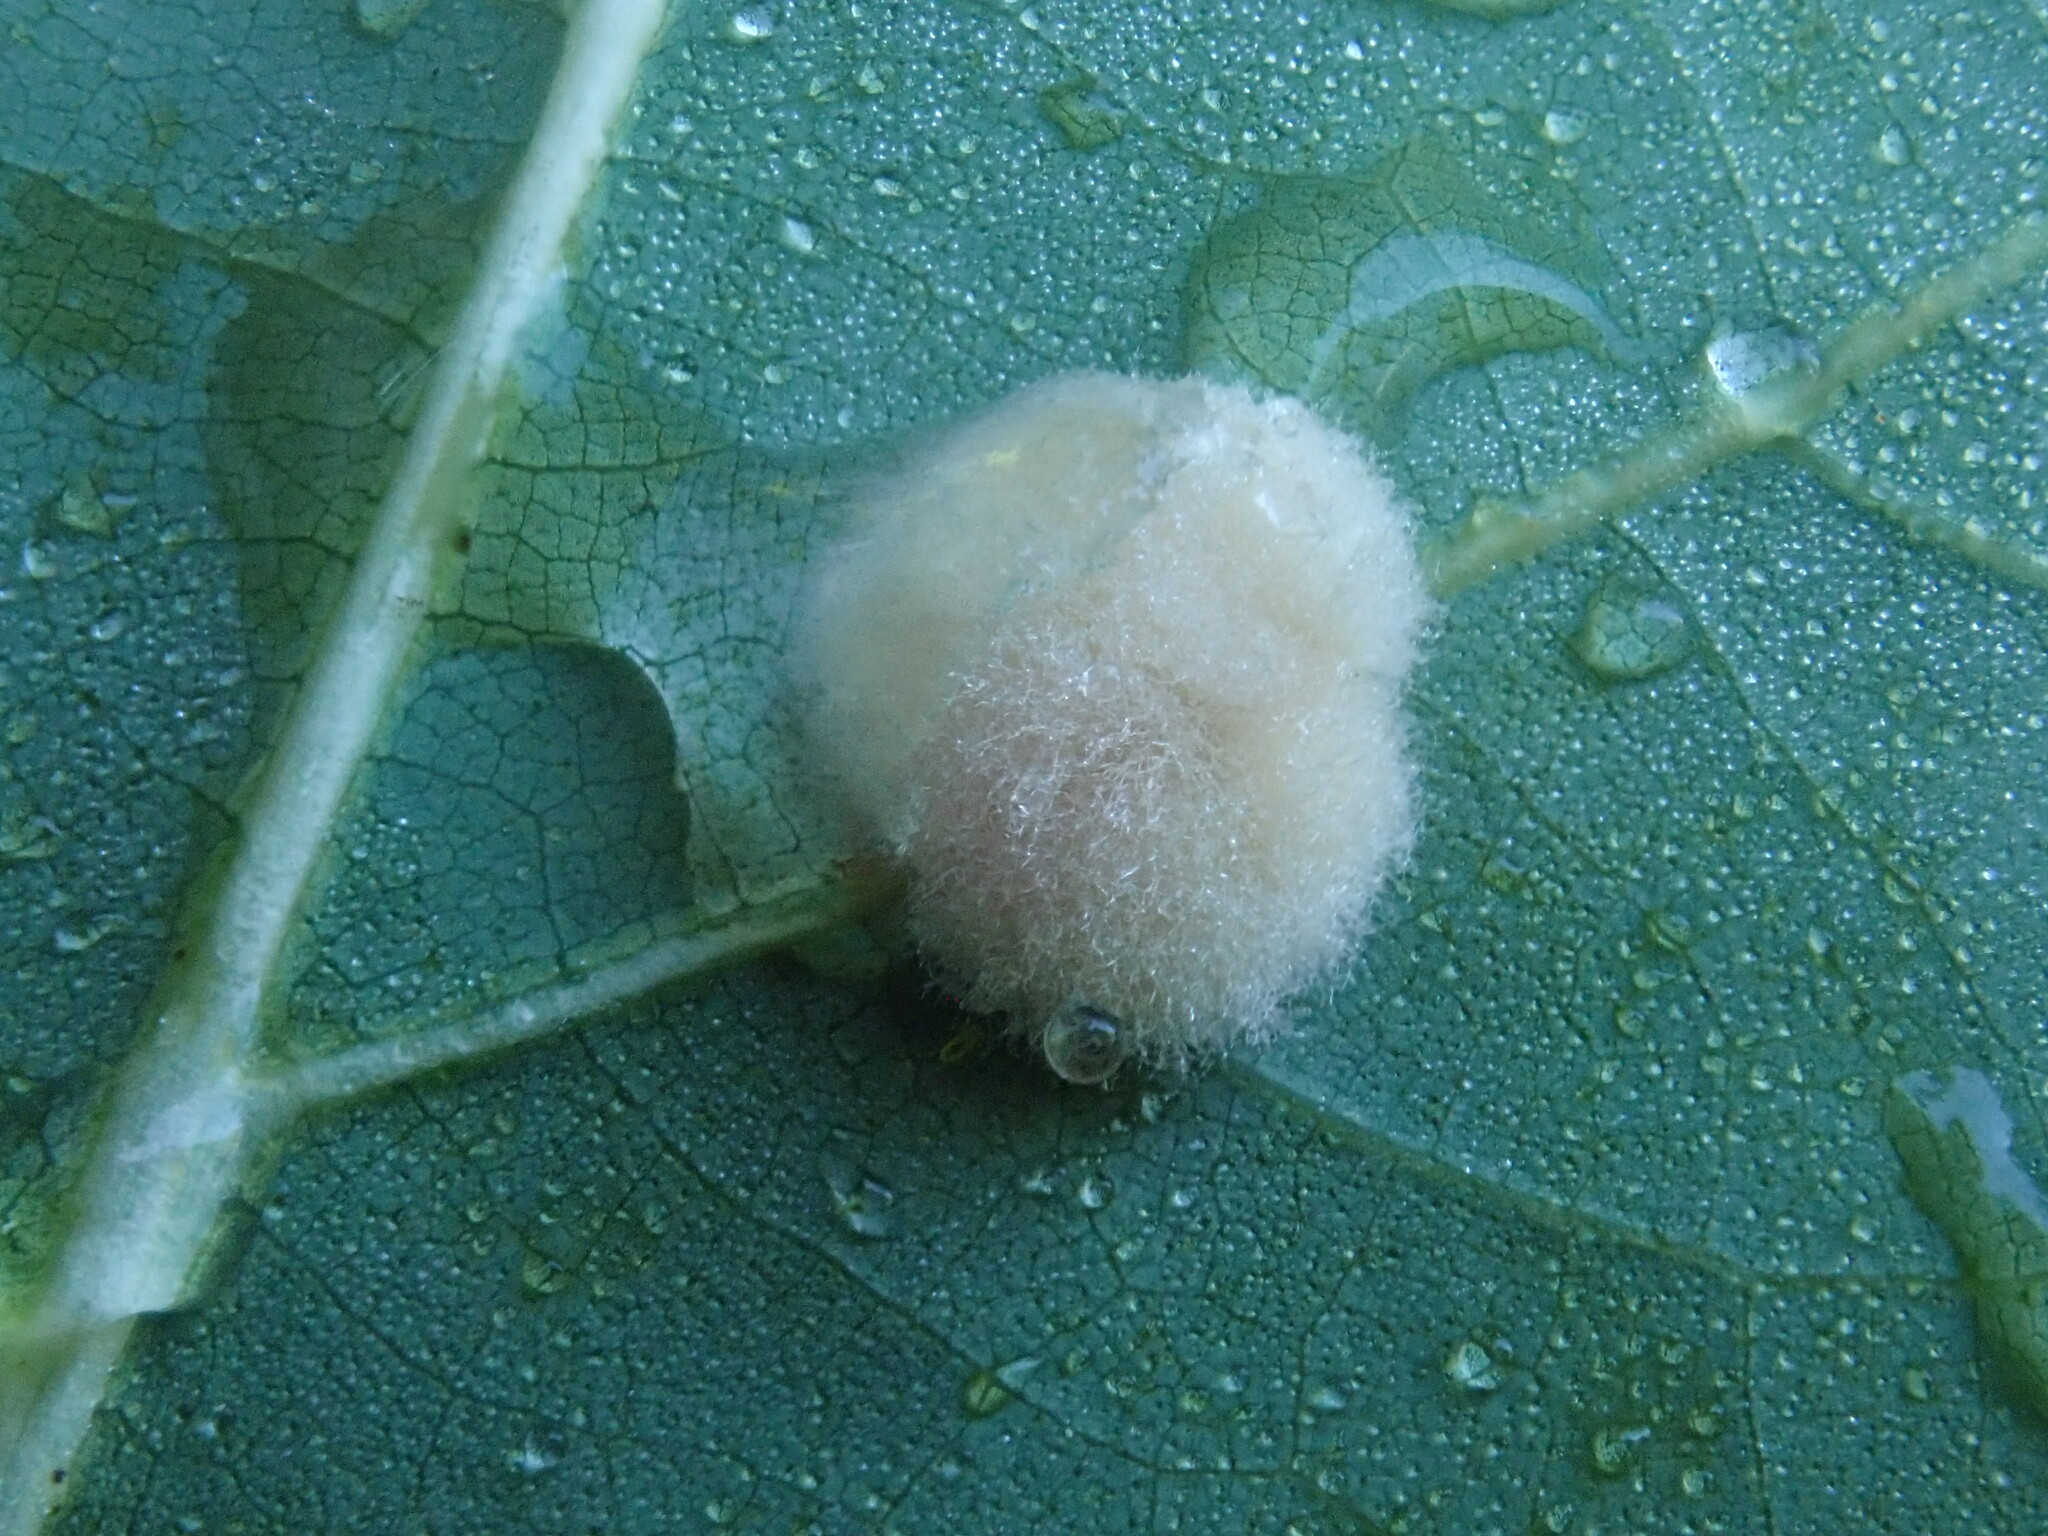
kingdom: Animalia
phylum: Arthropoda
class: Insecta
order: Hymenoptera
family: Cynipidae
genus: Callirhytis
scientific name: Callirhytis
